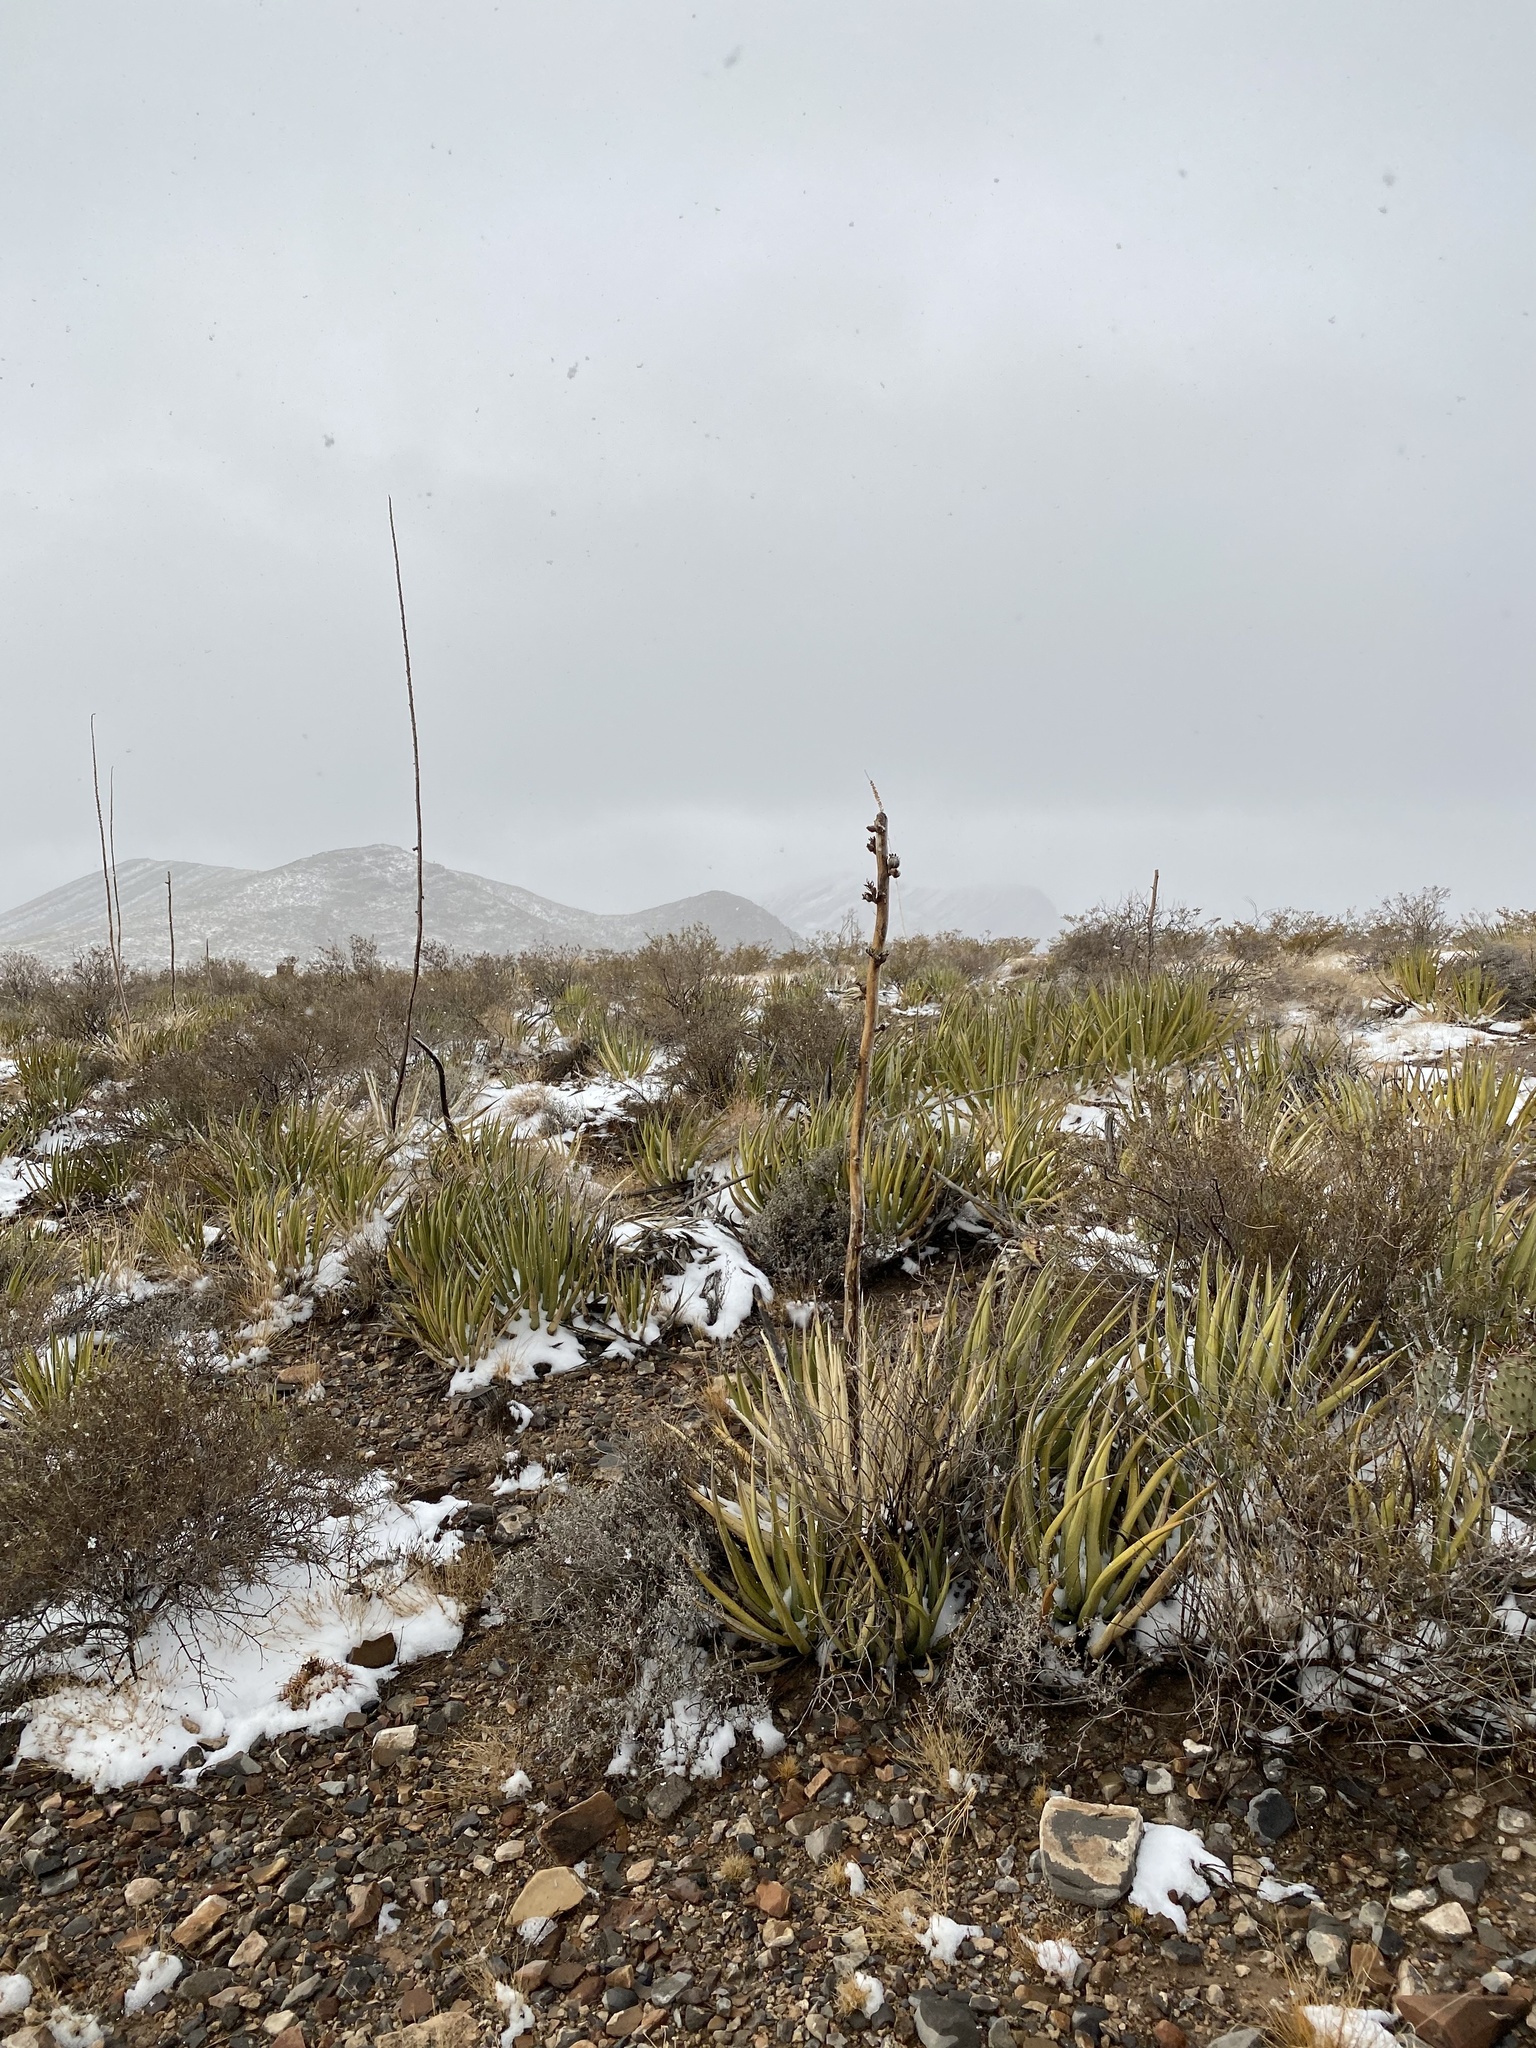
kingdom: Plantae
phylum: Tracheophyta
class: Liliopsida
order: Asparagales
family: Asparagaceae
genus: Agave
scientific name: Agave lechuguilla
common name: Lecheguilla agave
